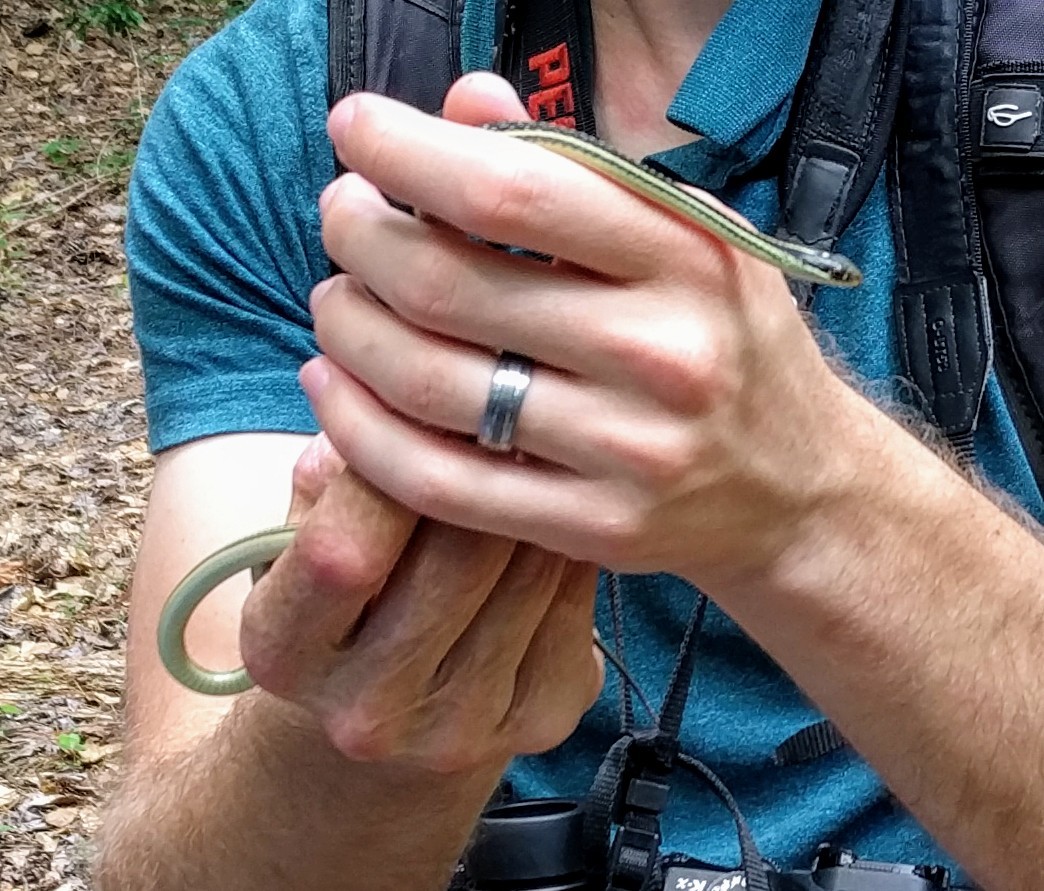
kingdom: Animalia
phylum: Chordata
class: Squamata
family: Colubridae
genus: Thamnophis
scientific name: Thamnophis proximus
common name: Western ribbon snake
